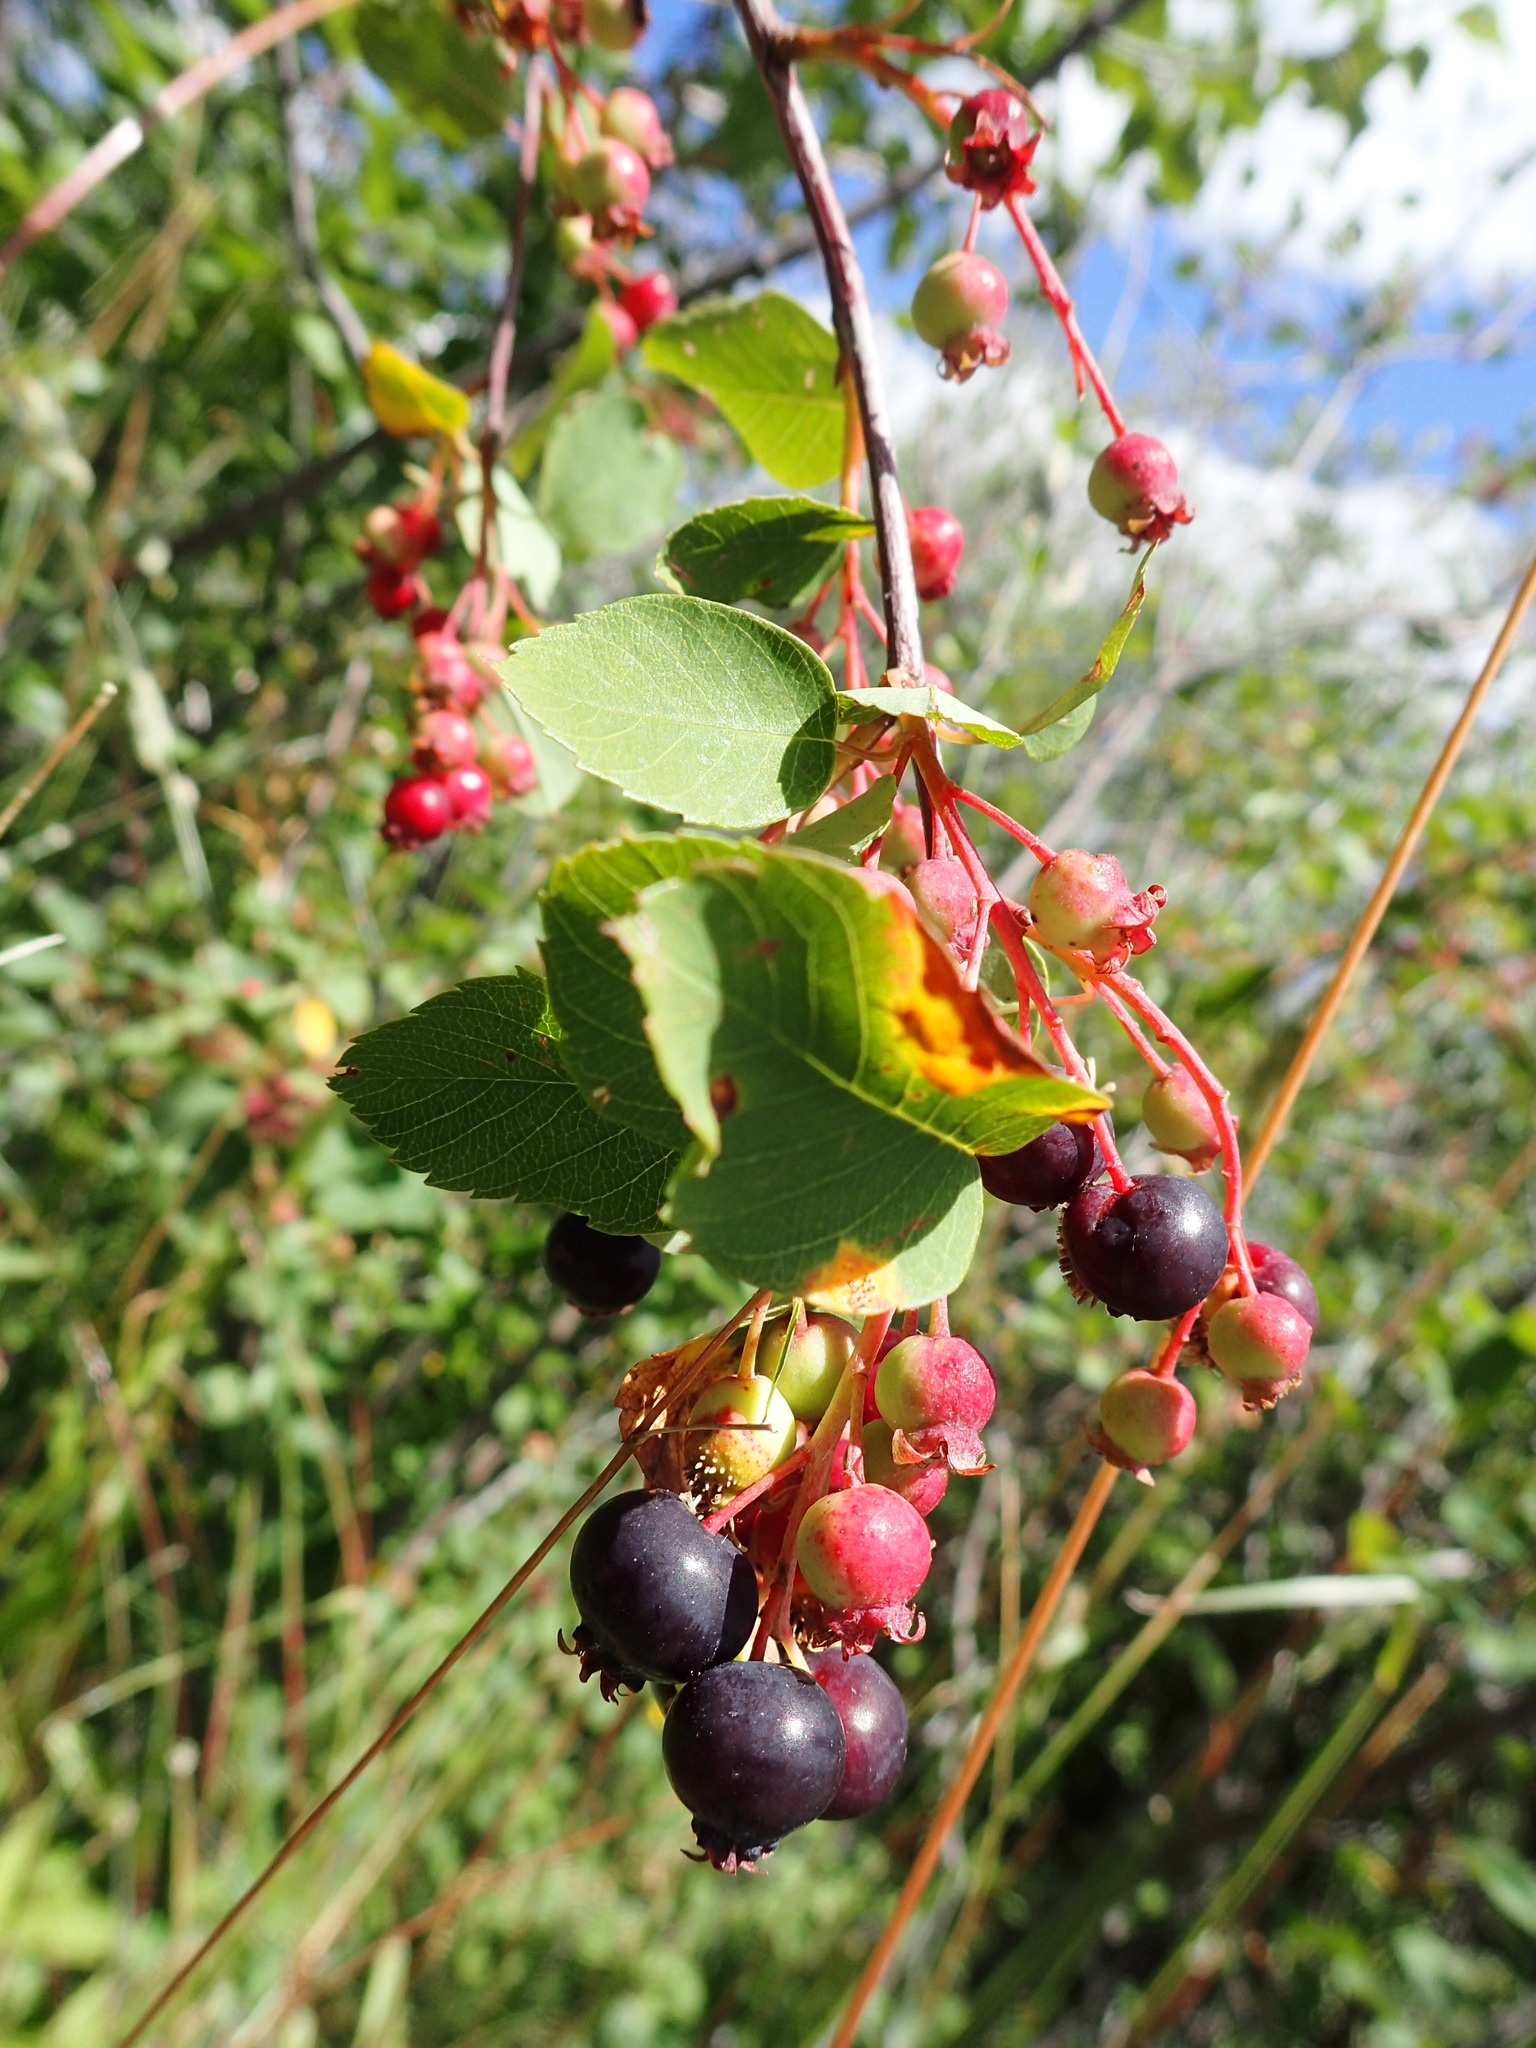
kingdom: Plantae
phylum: Tracheophyta
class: Magnoliopsida
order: Rosales
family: Rosaceae
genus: Amelanchier
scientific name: Amelanchier alnifolia
